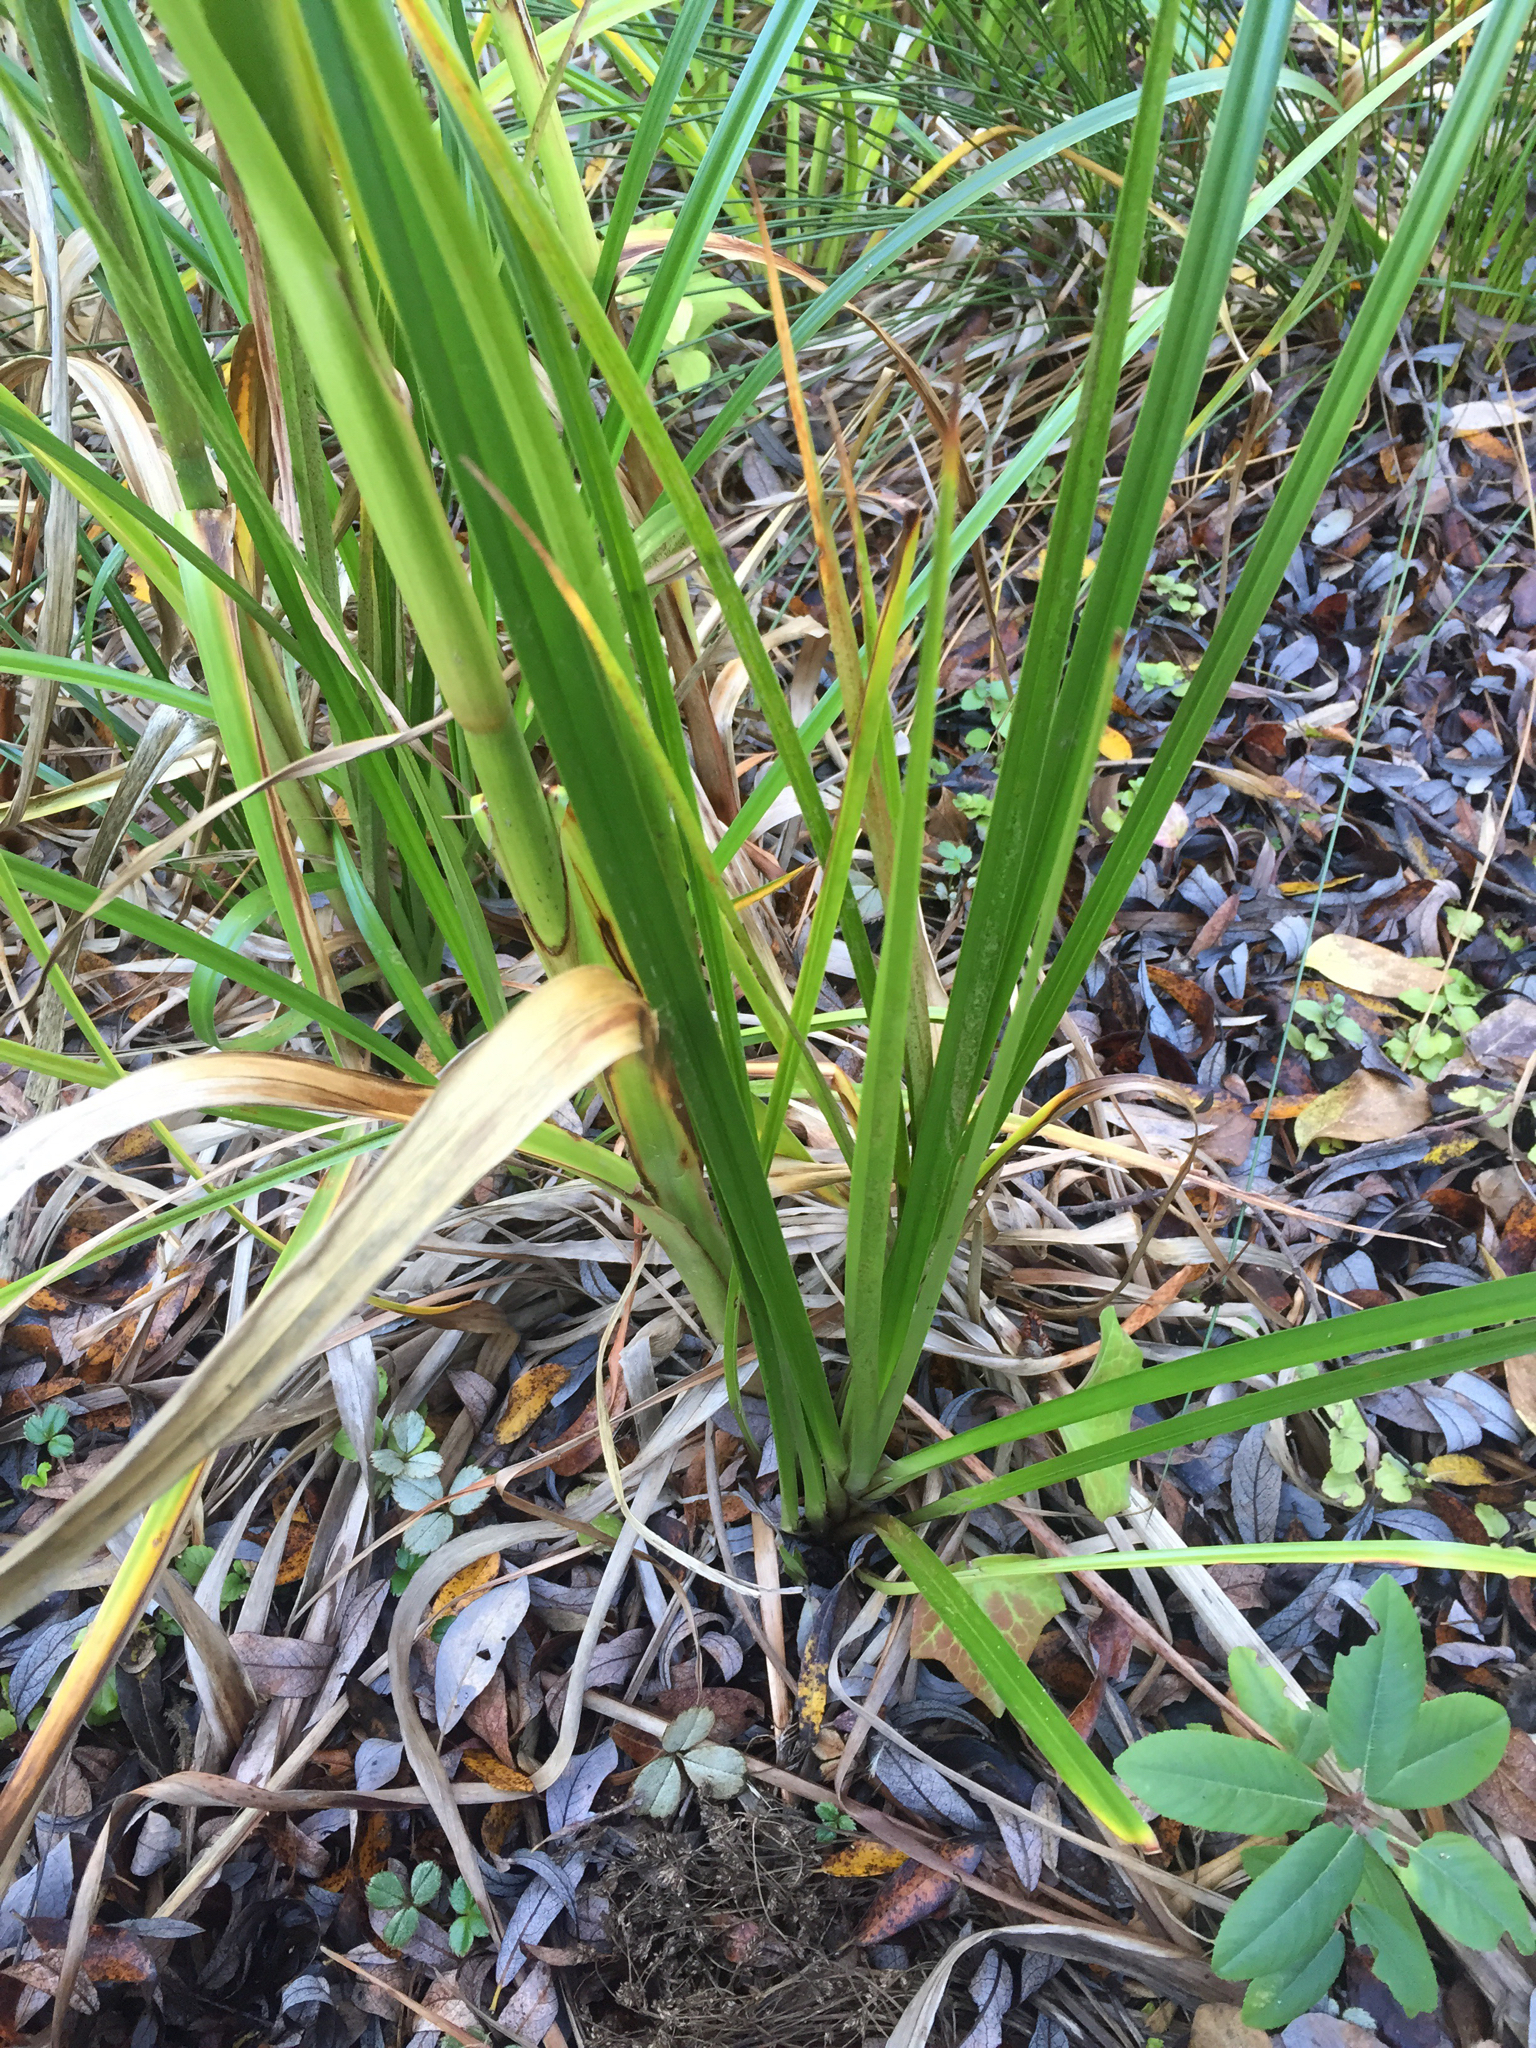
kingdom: Plantae
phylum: Tracheophyta
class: Liliopsida
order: Poales
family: Cyperaceae
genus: Scirpus
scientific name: Scirpus microcarpus
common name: Panicled bulrush
